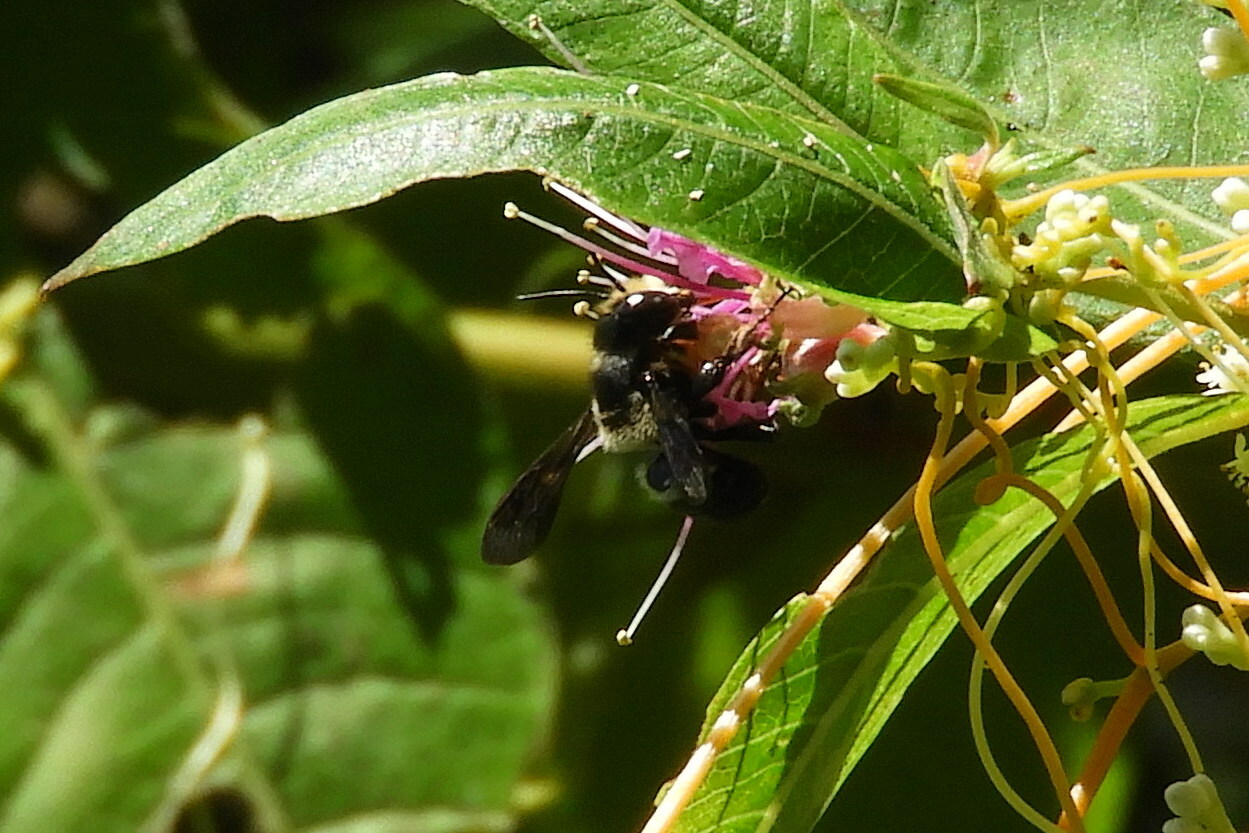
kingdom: Animalia
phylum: Arthropoda
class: Insecta
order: Hymenoptera
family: Megachilidae
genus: Megachile
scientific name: Megachile xylocopoides
